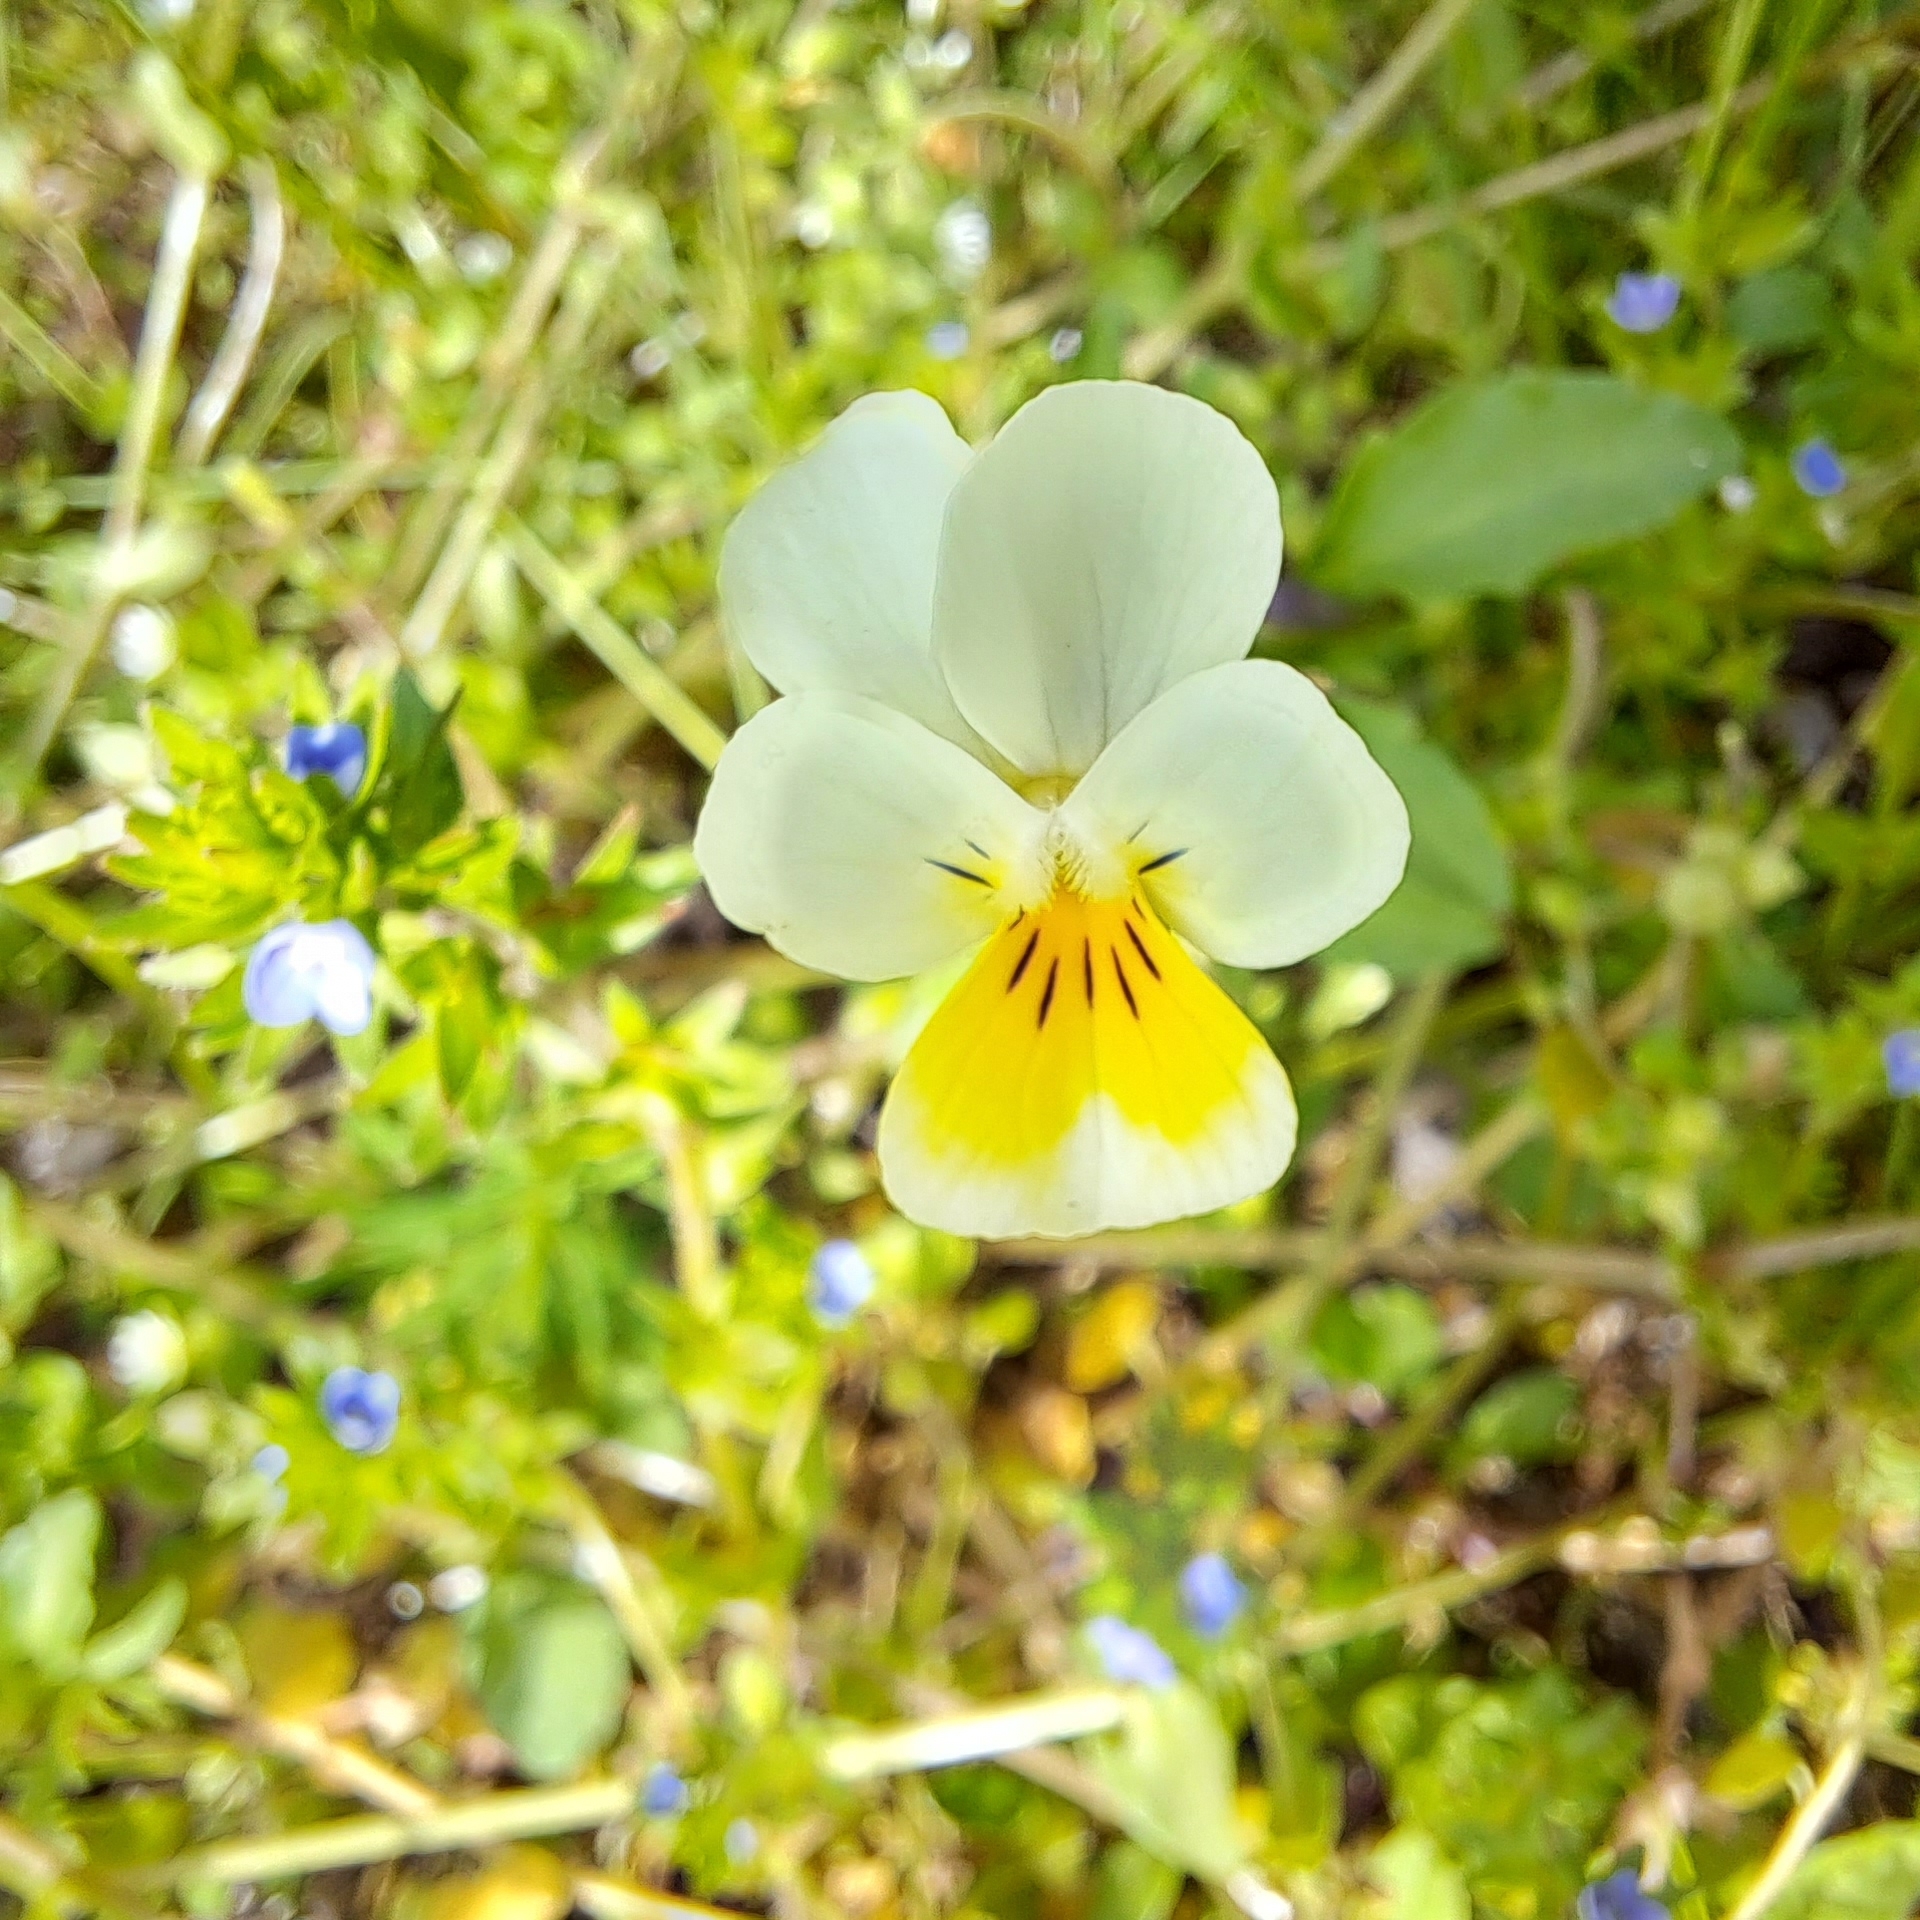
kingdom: Plantae
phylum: Tracheophyta
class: Magnoliopsida
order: Malpighiales
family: Violaceae
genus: Viola
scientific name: Viola arvensis
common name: Field pansy
